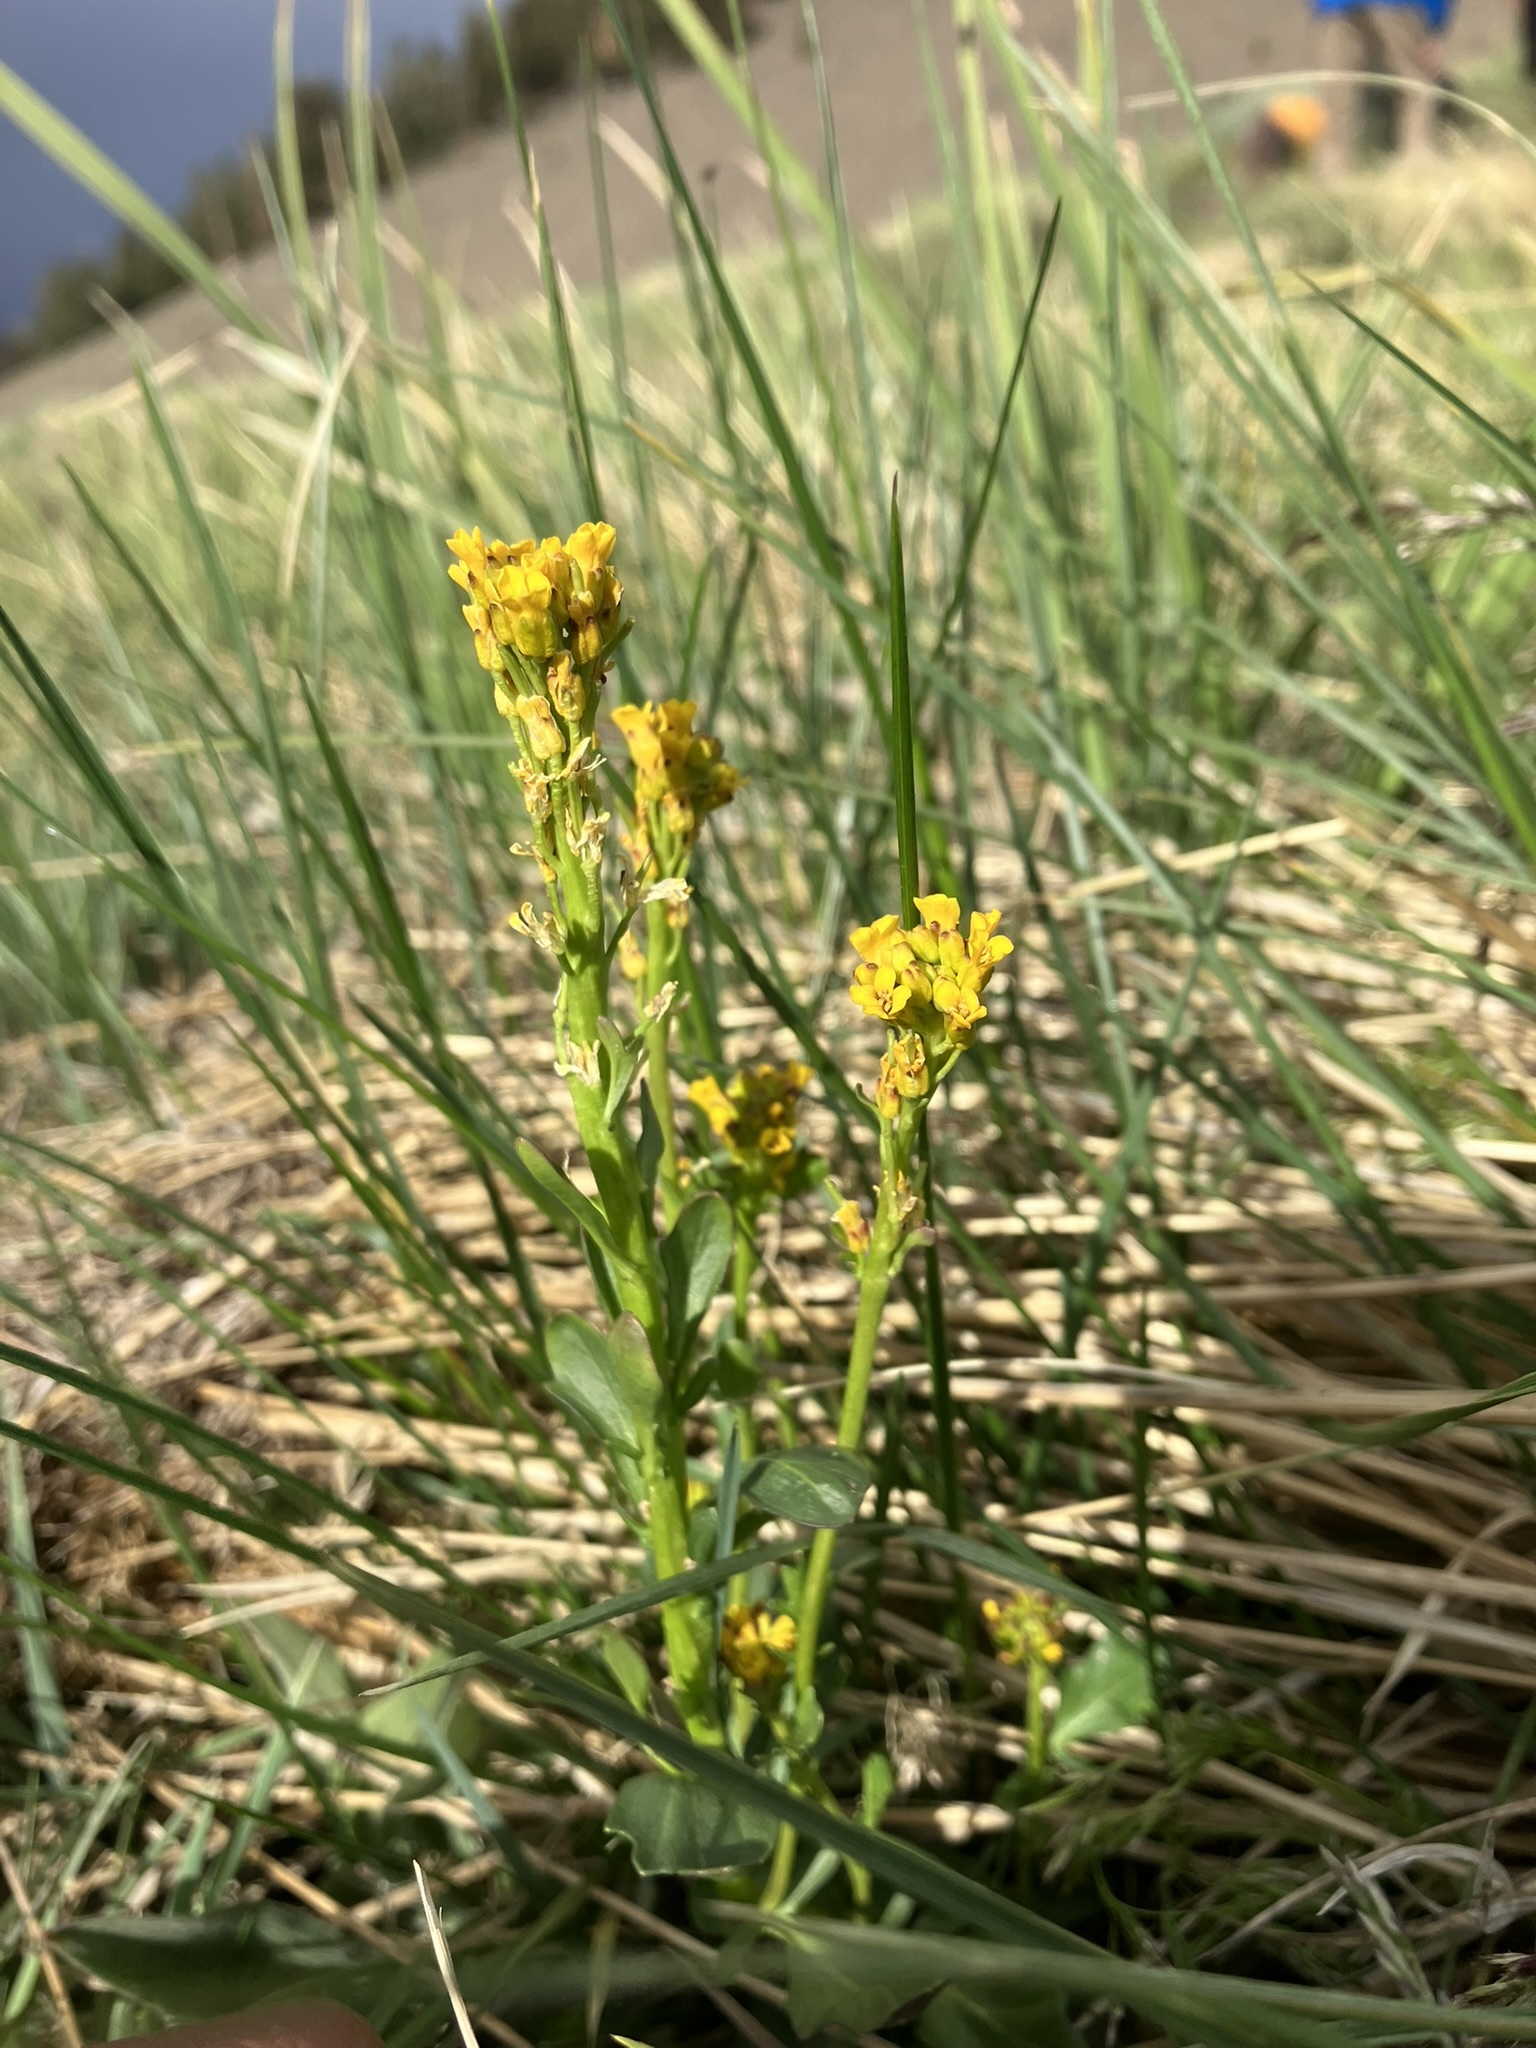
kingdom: Plantae
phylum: Tracheophyta
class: Magnoliopsida
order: Brassicales
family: Brassicaceae
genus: Barbarea
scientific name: Barbarea orthoceras
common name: American wintercress
